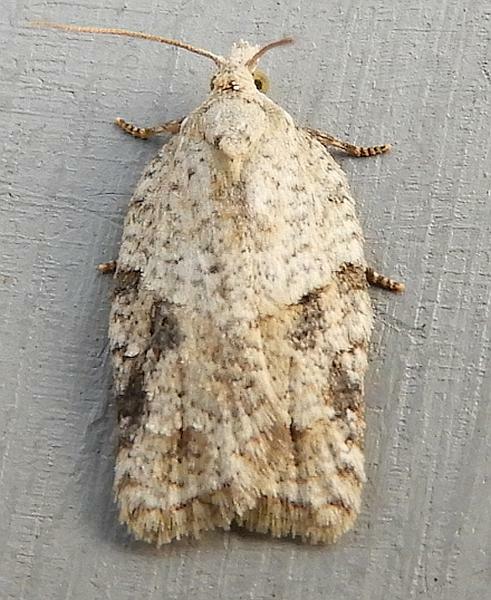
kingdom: Animalia
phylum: Arthropoda
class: Insecta
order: Lepidoptera
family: Tortricidae
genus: Acleris
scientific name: Acleris placidana
